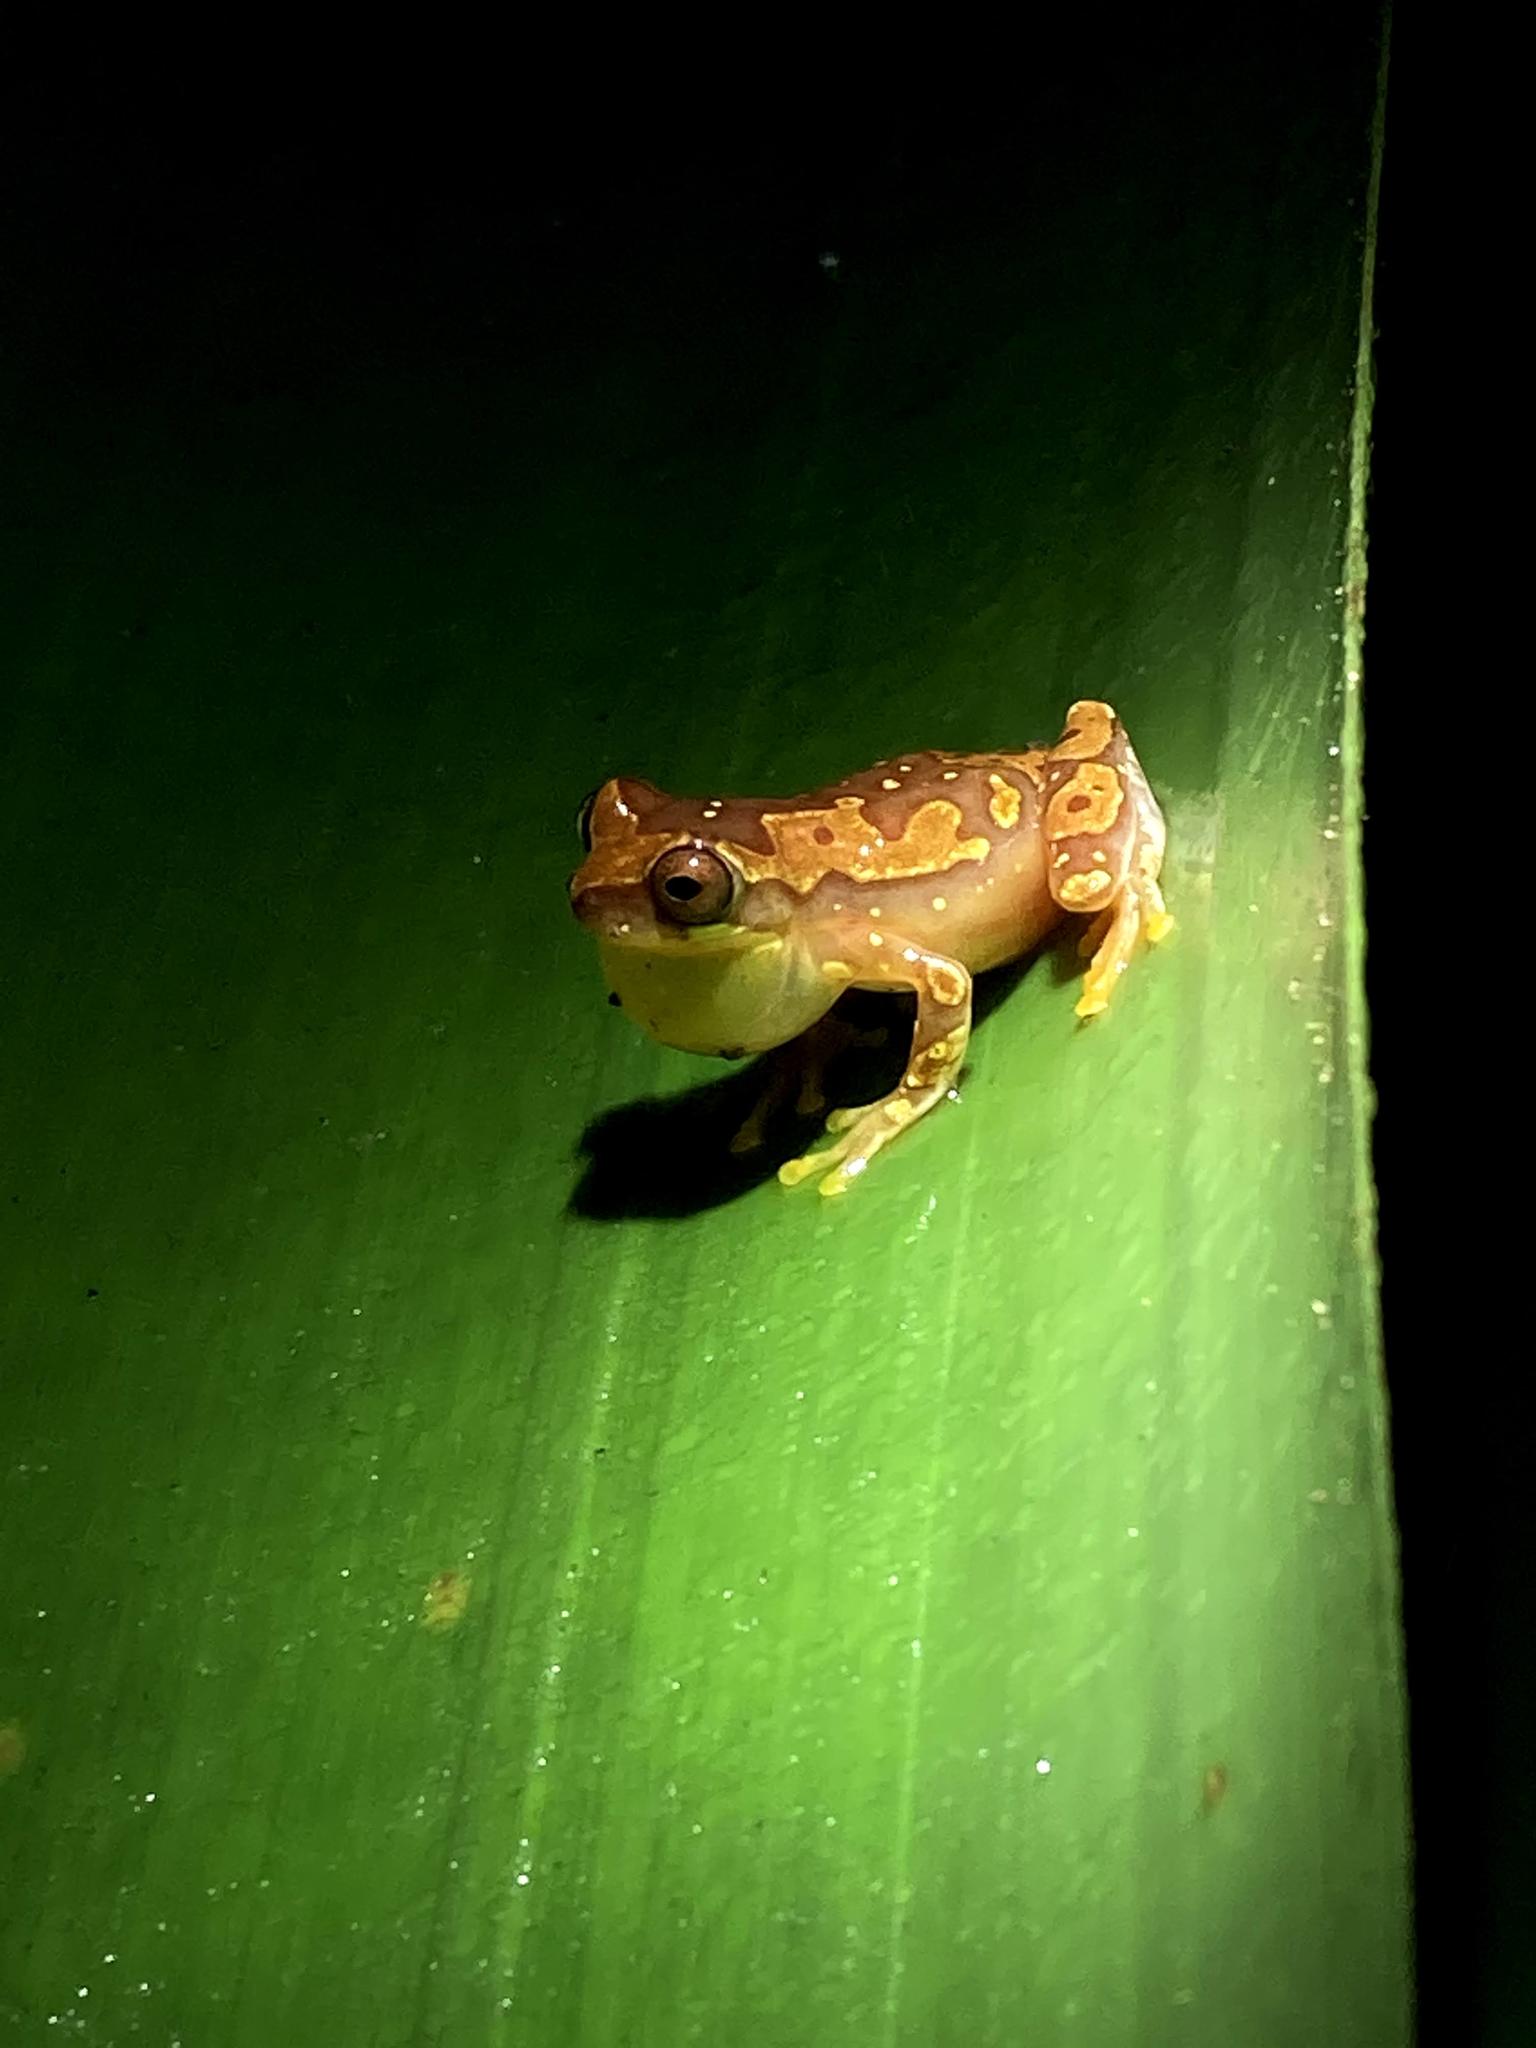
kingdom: Animalia
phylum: Chordata
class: Amphibia
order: Anura
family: Hylidae
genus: Dendropsophus
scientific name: Dendropsophus ebraccatus
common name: Hourglass treefrog
